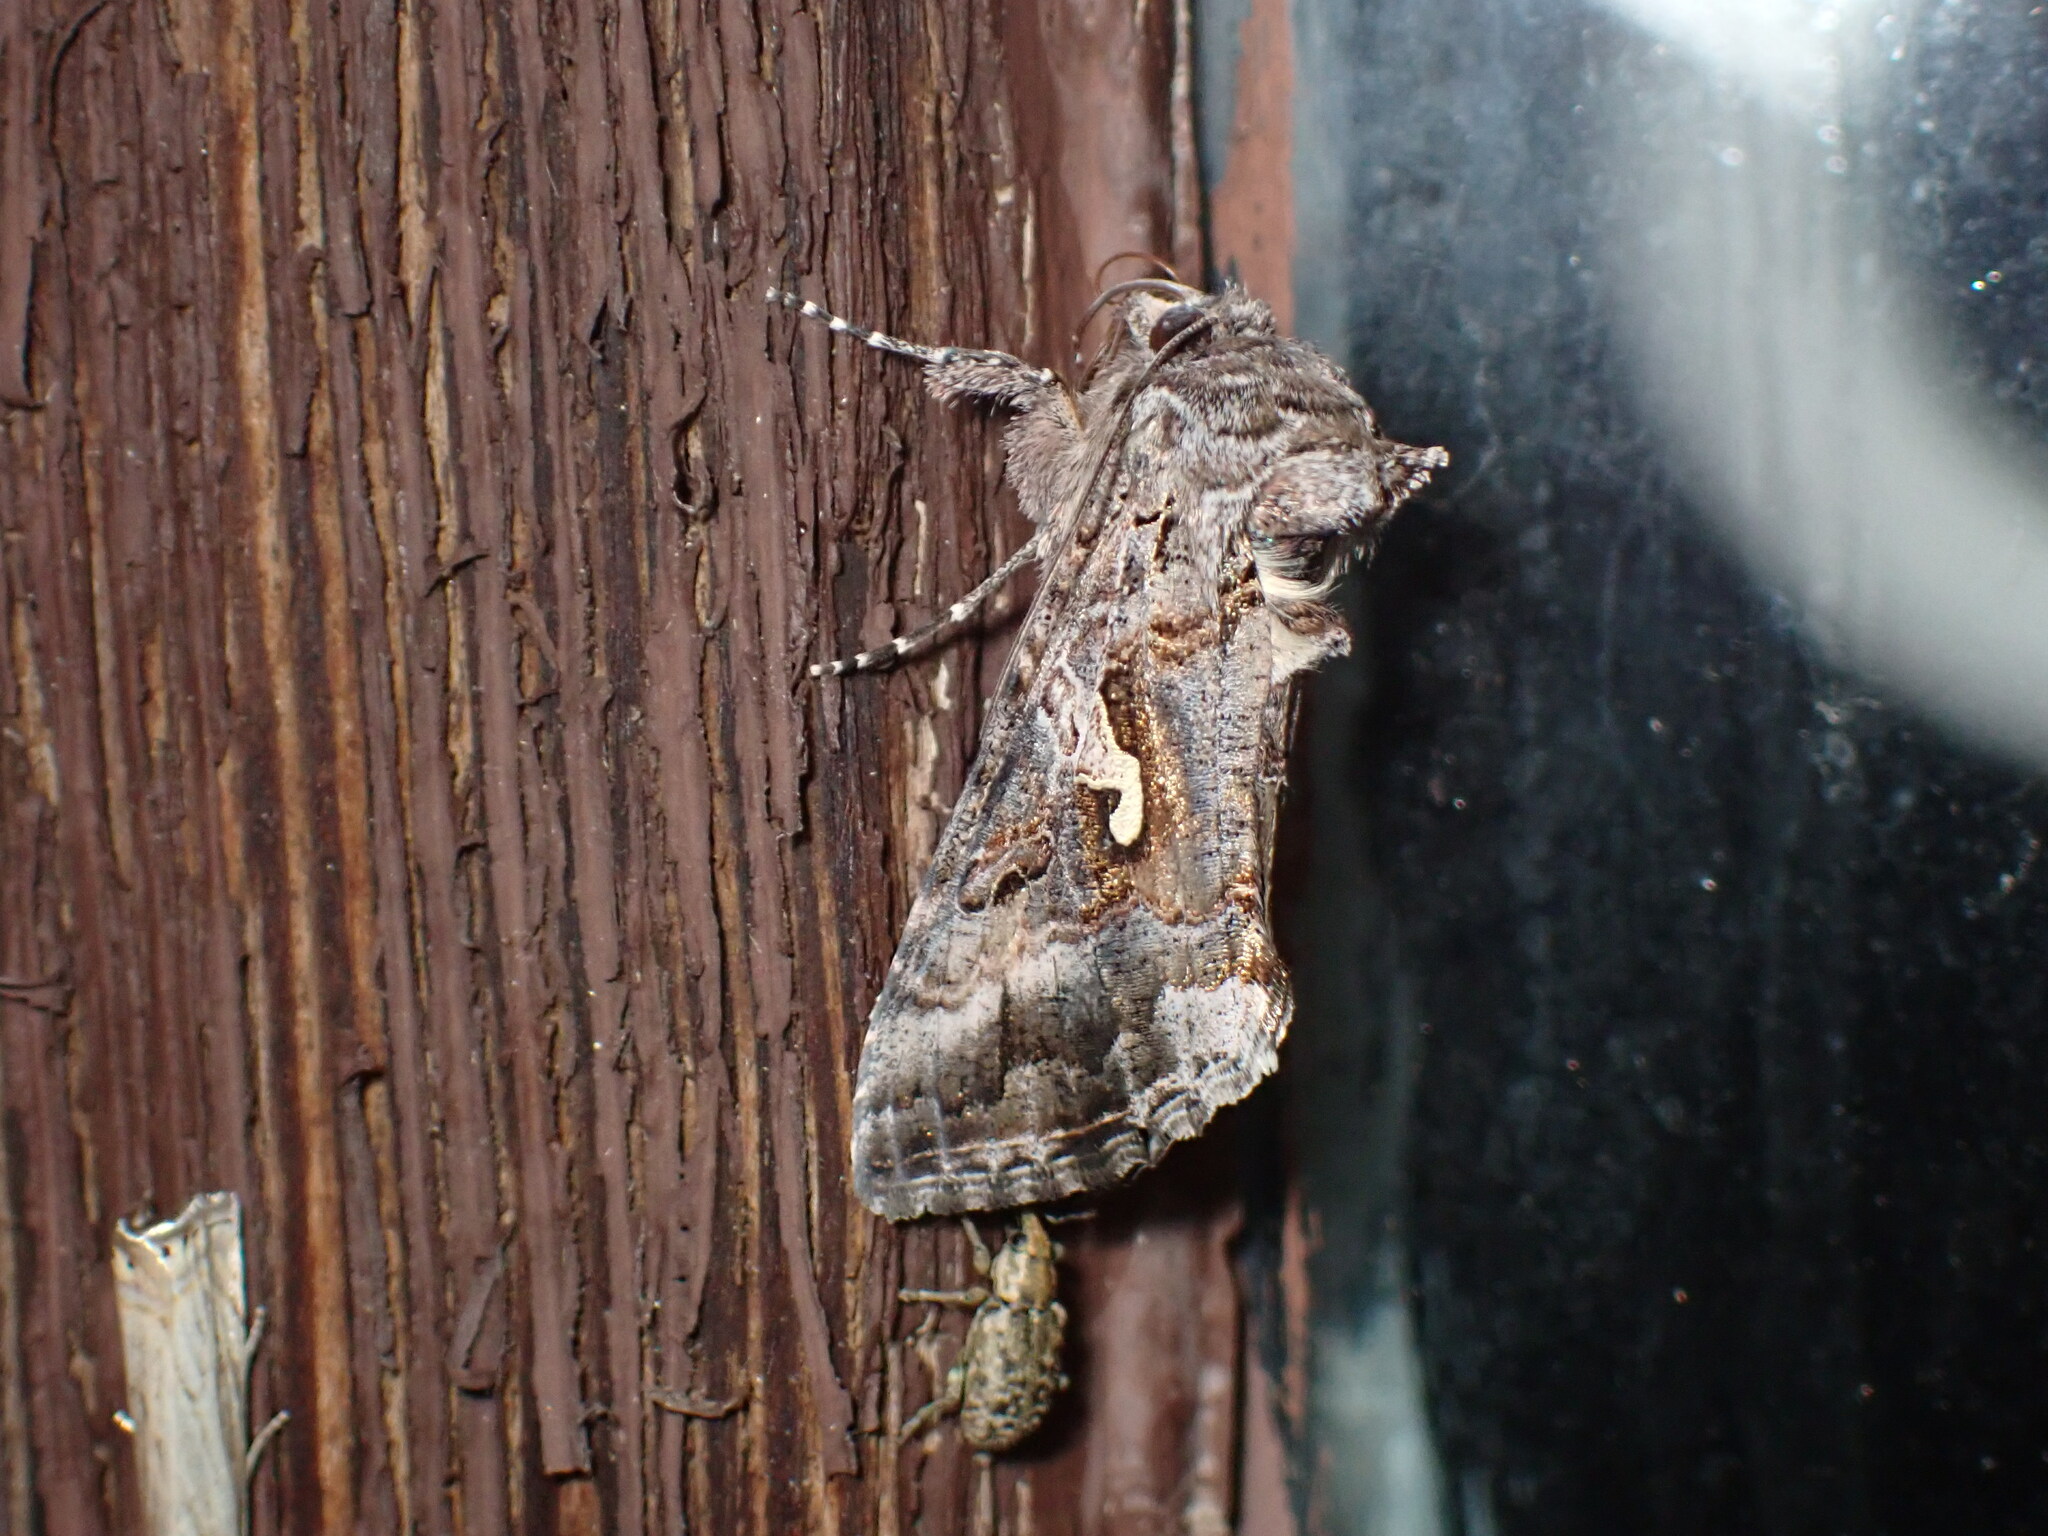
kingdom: Animalia
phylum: Arthropoda
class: Insecta
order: Lepidoptera
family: Noctuidae
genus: Autographa
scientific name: Autographa californica
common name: Alfalfa looper
